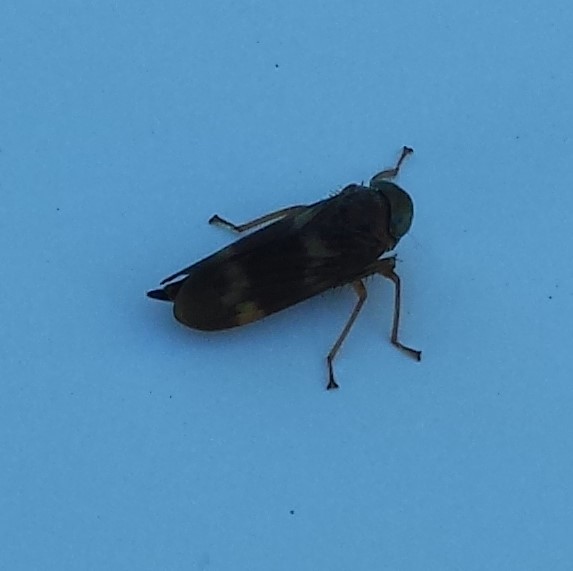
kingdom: Animalia
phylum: Arthropoda
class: Insecta
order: Hemiptera
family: Cicadellidae
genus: Jikradia
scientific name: Jikradia olitoria
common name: Coppery leafhopper
